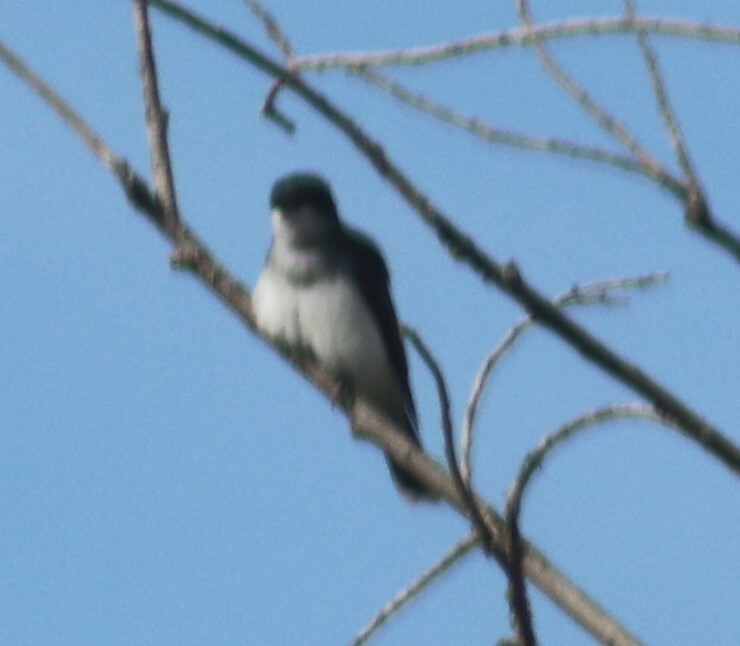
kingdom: Animalia
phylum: Chordata
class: Aves
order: Passeriformes
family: Tyrannidae
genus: Tyrannus
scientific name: Tyrannus tyrannus
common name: Eastern kingbird
